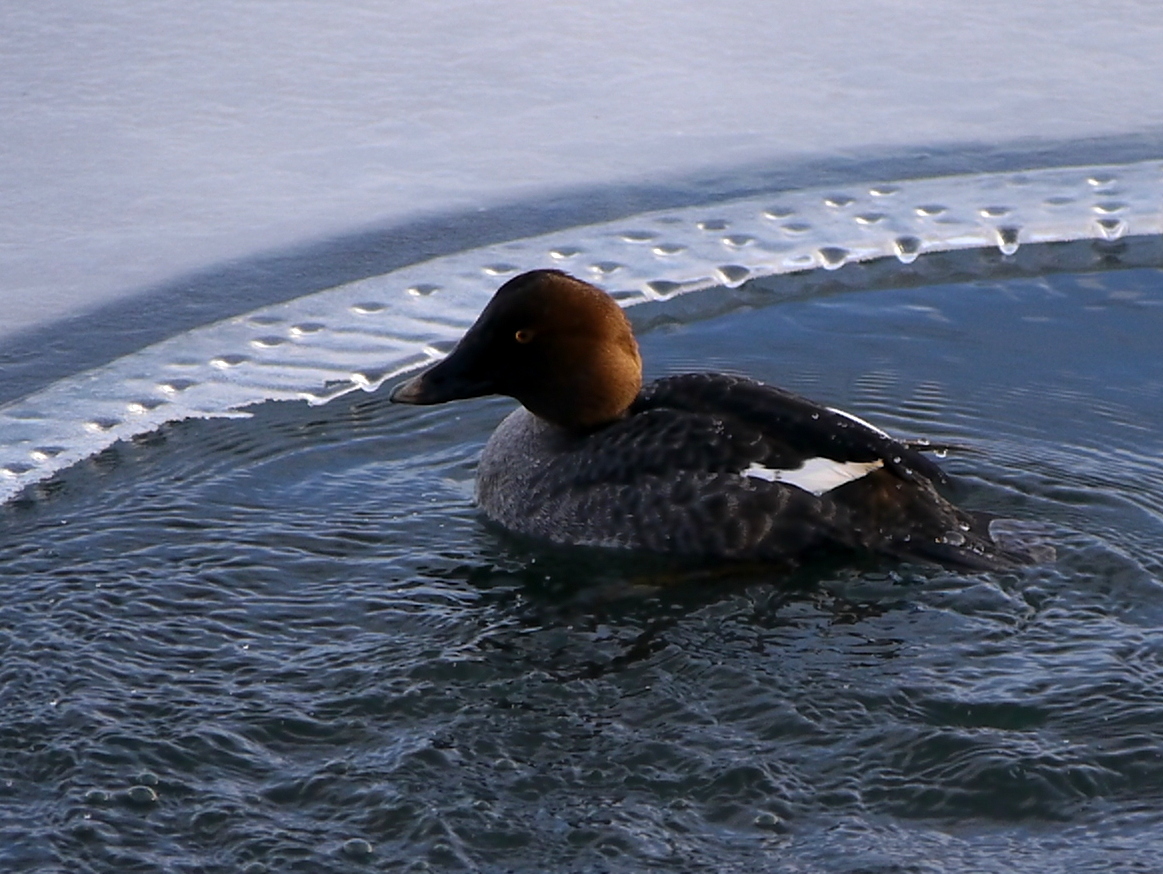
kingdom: Animalia
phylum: Chordata
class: Aves
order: Anseriformes
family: Anatidae
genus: Bucephala
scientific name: Bucephala clangula
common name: Common goldeneye
